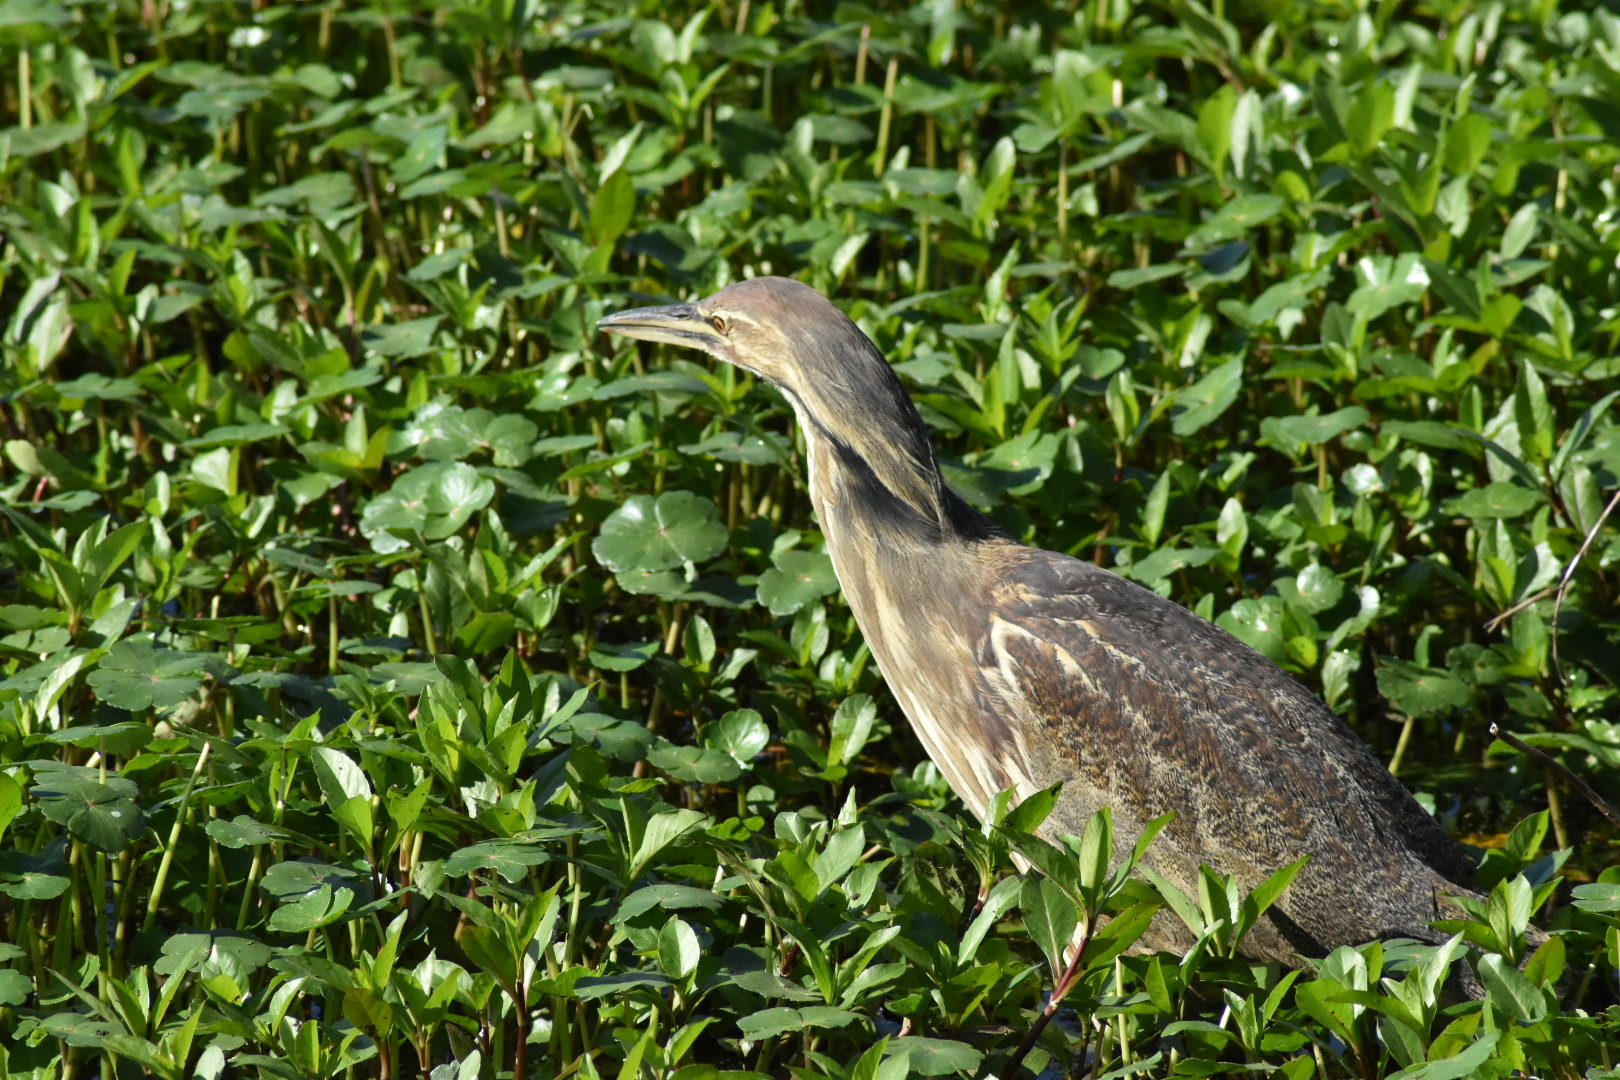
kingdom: Animalia
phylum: Chordata
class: Aves
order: Pelecaniformes
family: Ardeidae
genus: Botaurus
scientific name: Botaurus lentiginosus
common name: American bittern
